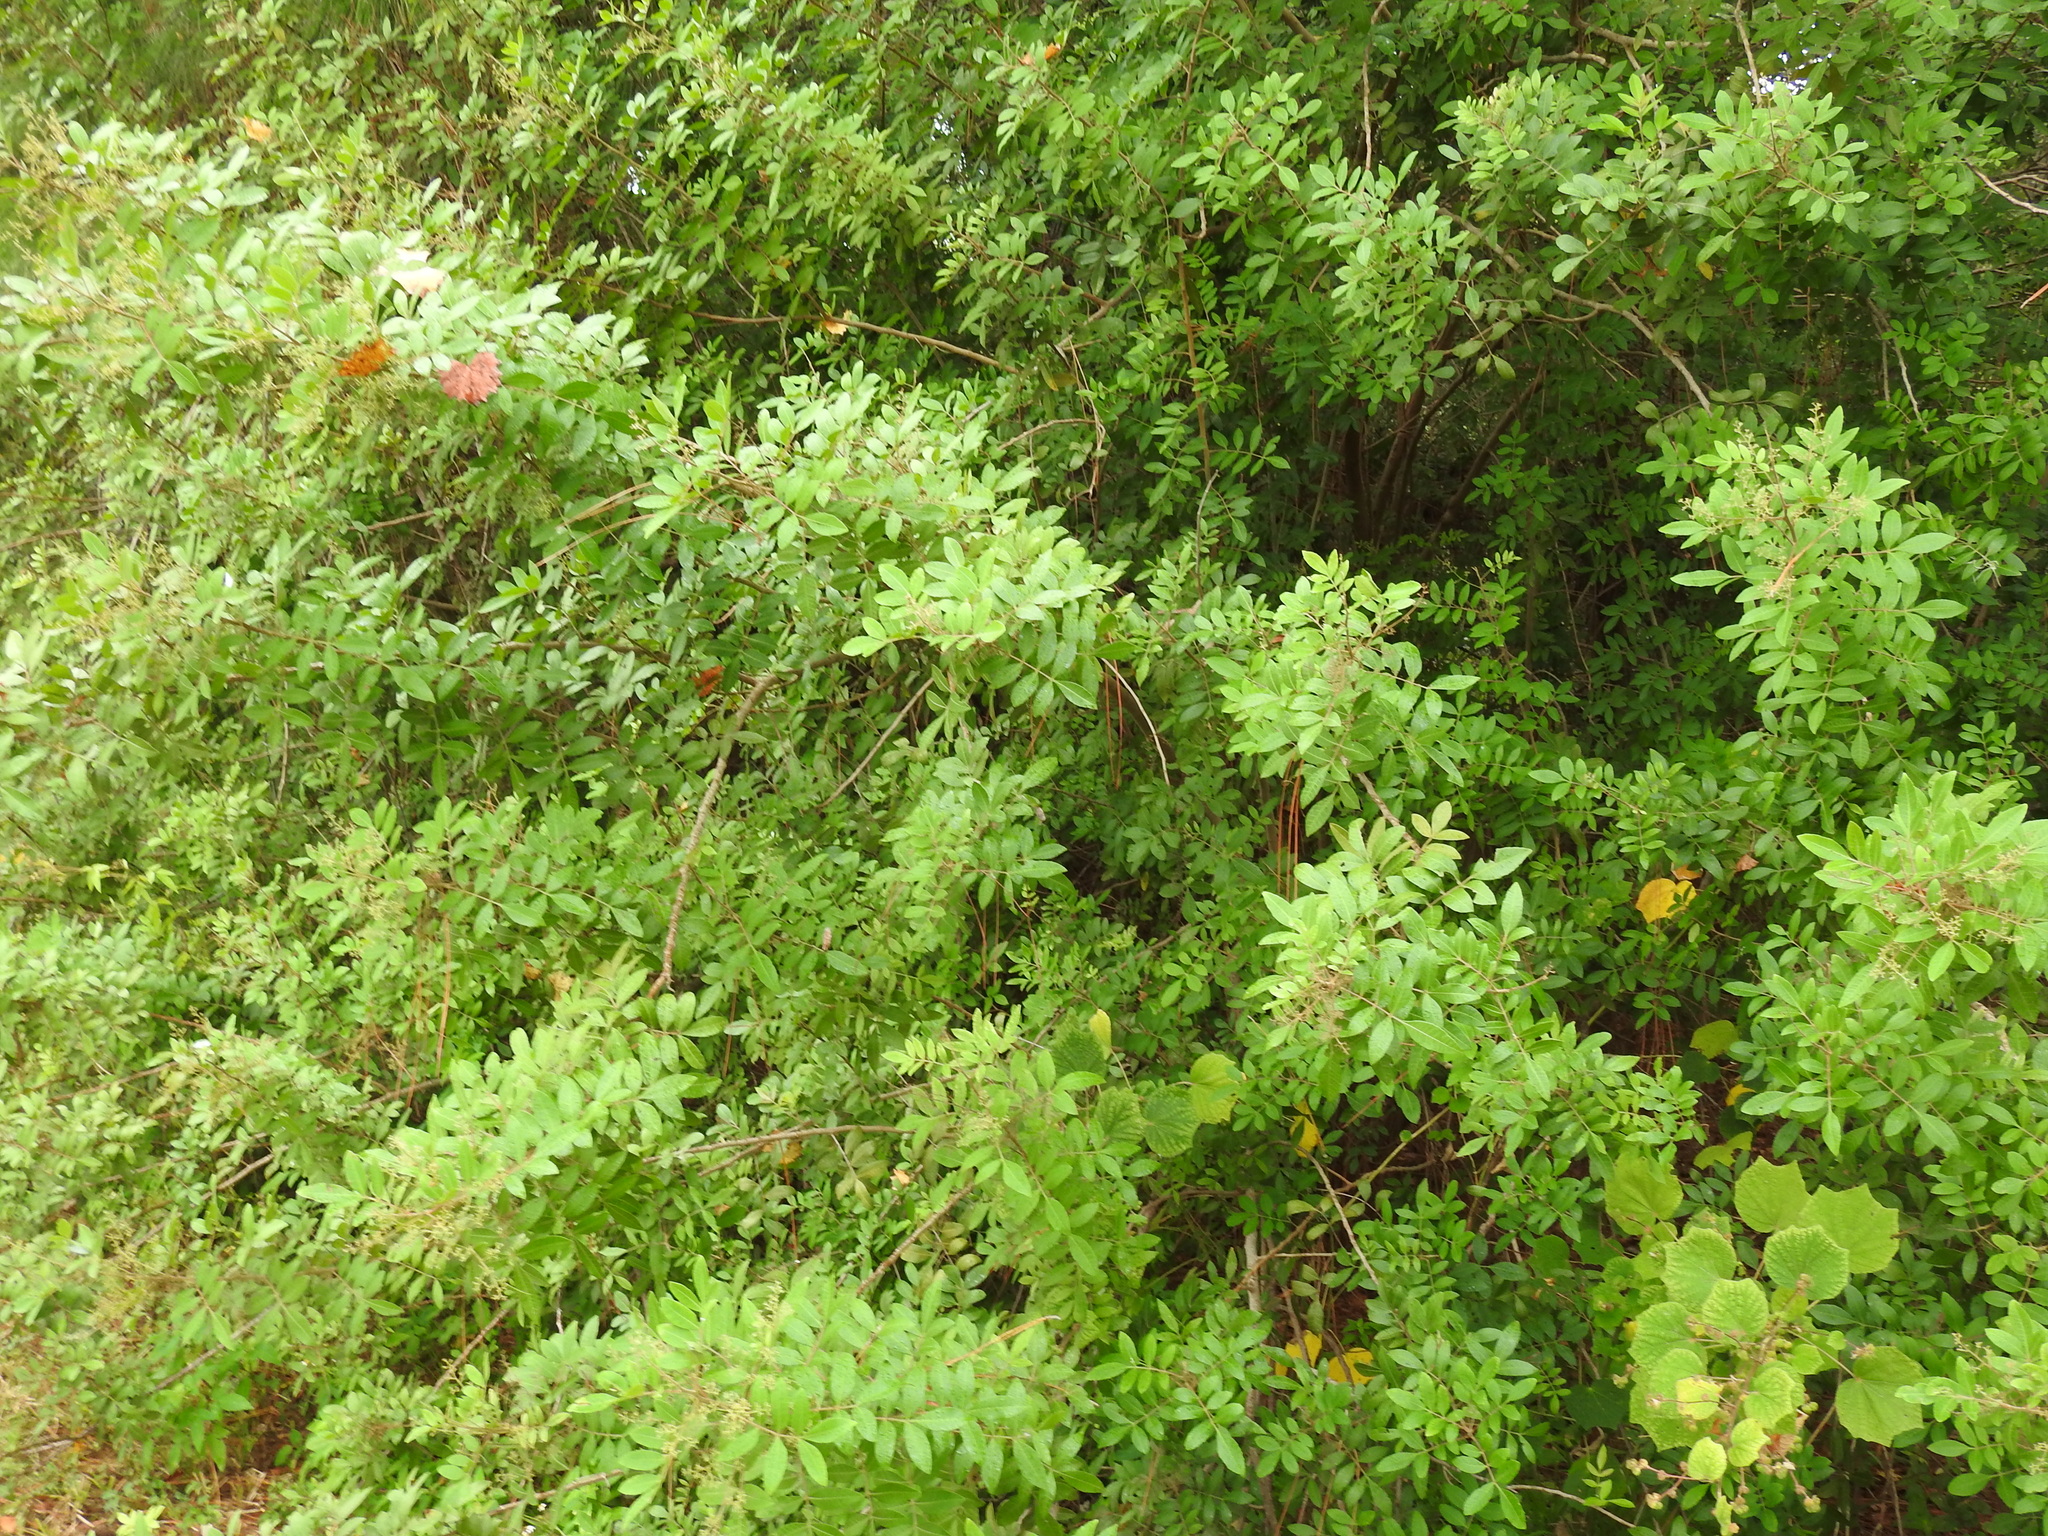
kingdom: Plantae
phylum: Tracheophyta
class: Magnoliopsida
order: Sapindales
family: Anacardiaceae
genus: Schinus
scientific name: Schinus terebinthifolia
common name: Brazilian peppertree
